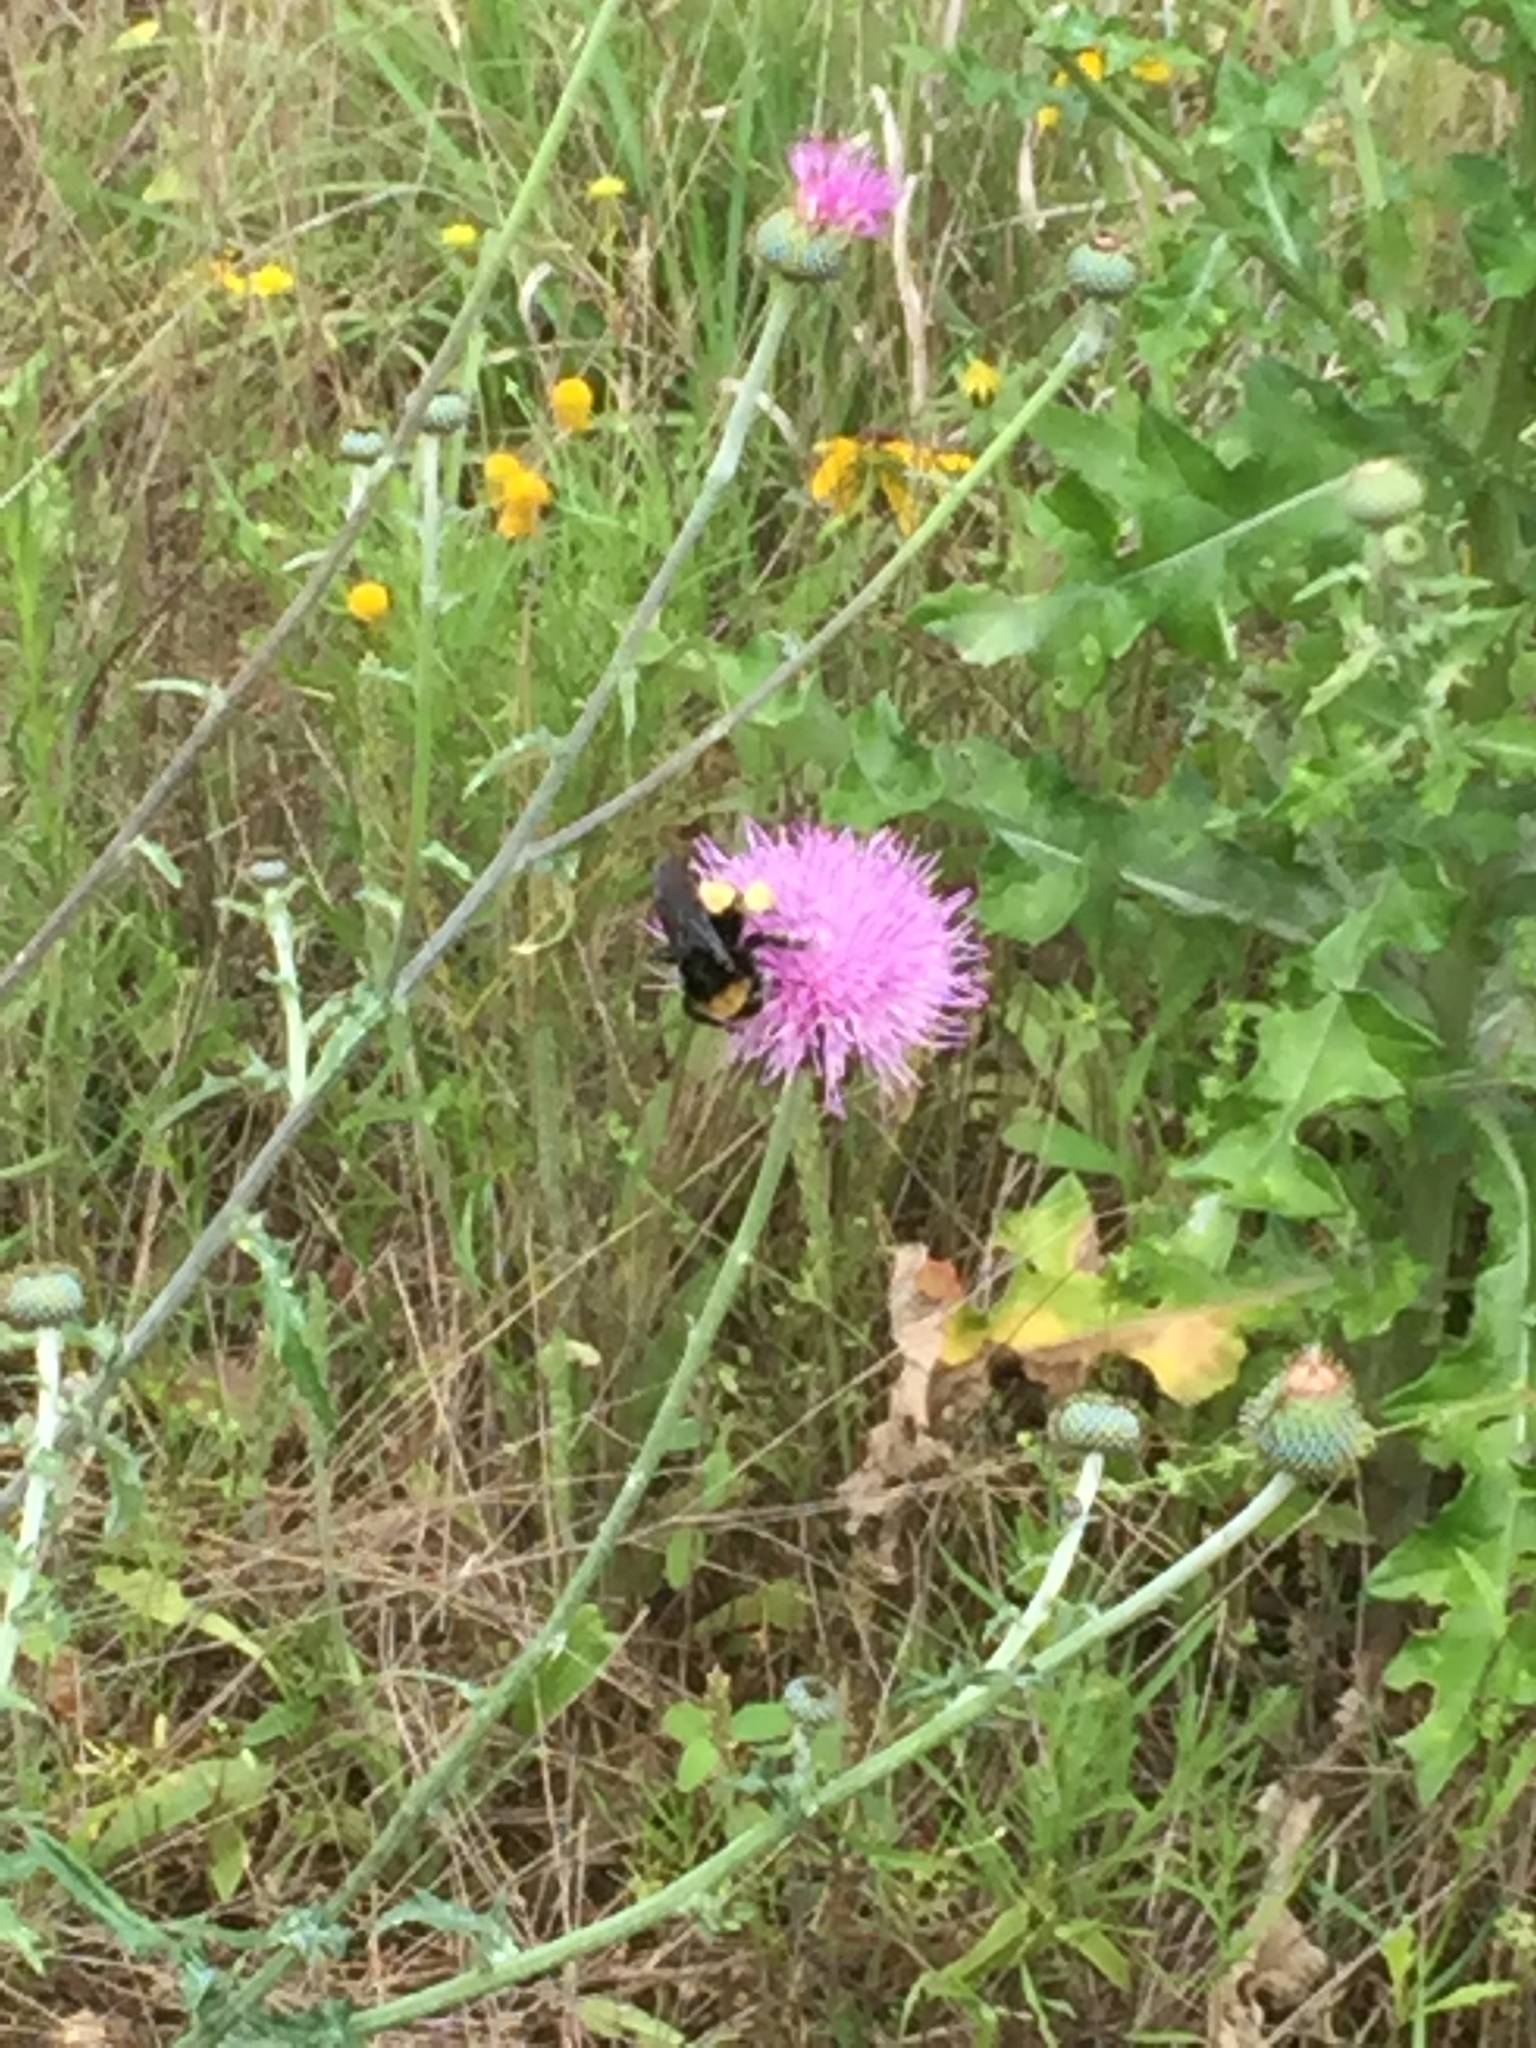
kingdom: Animalia
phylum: Arthropoda
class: Insecta
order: Hymenoptera
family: Apidae
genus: Bombus
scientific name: Bombus pensylvanicus
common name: Bumble bee
